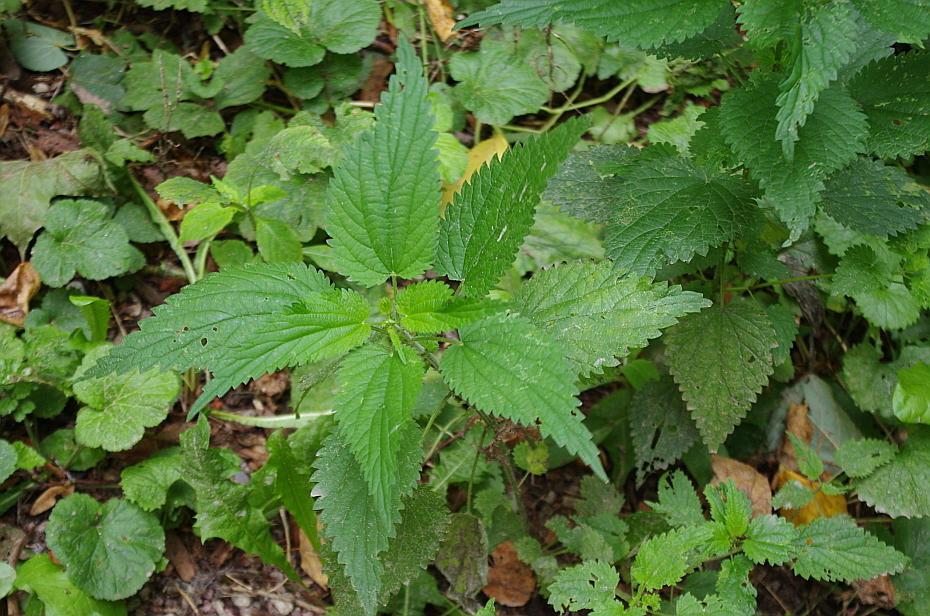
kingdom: Plantae
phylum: Tracheophyta
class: Magnoliopsida
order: Rosales
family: Urticaceae
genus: Urtica
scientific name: Urtica dioica
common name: Common nettle
